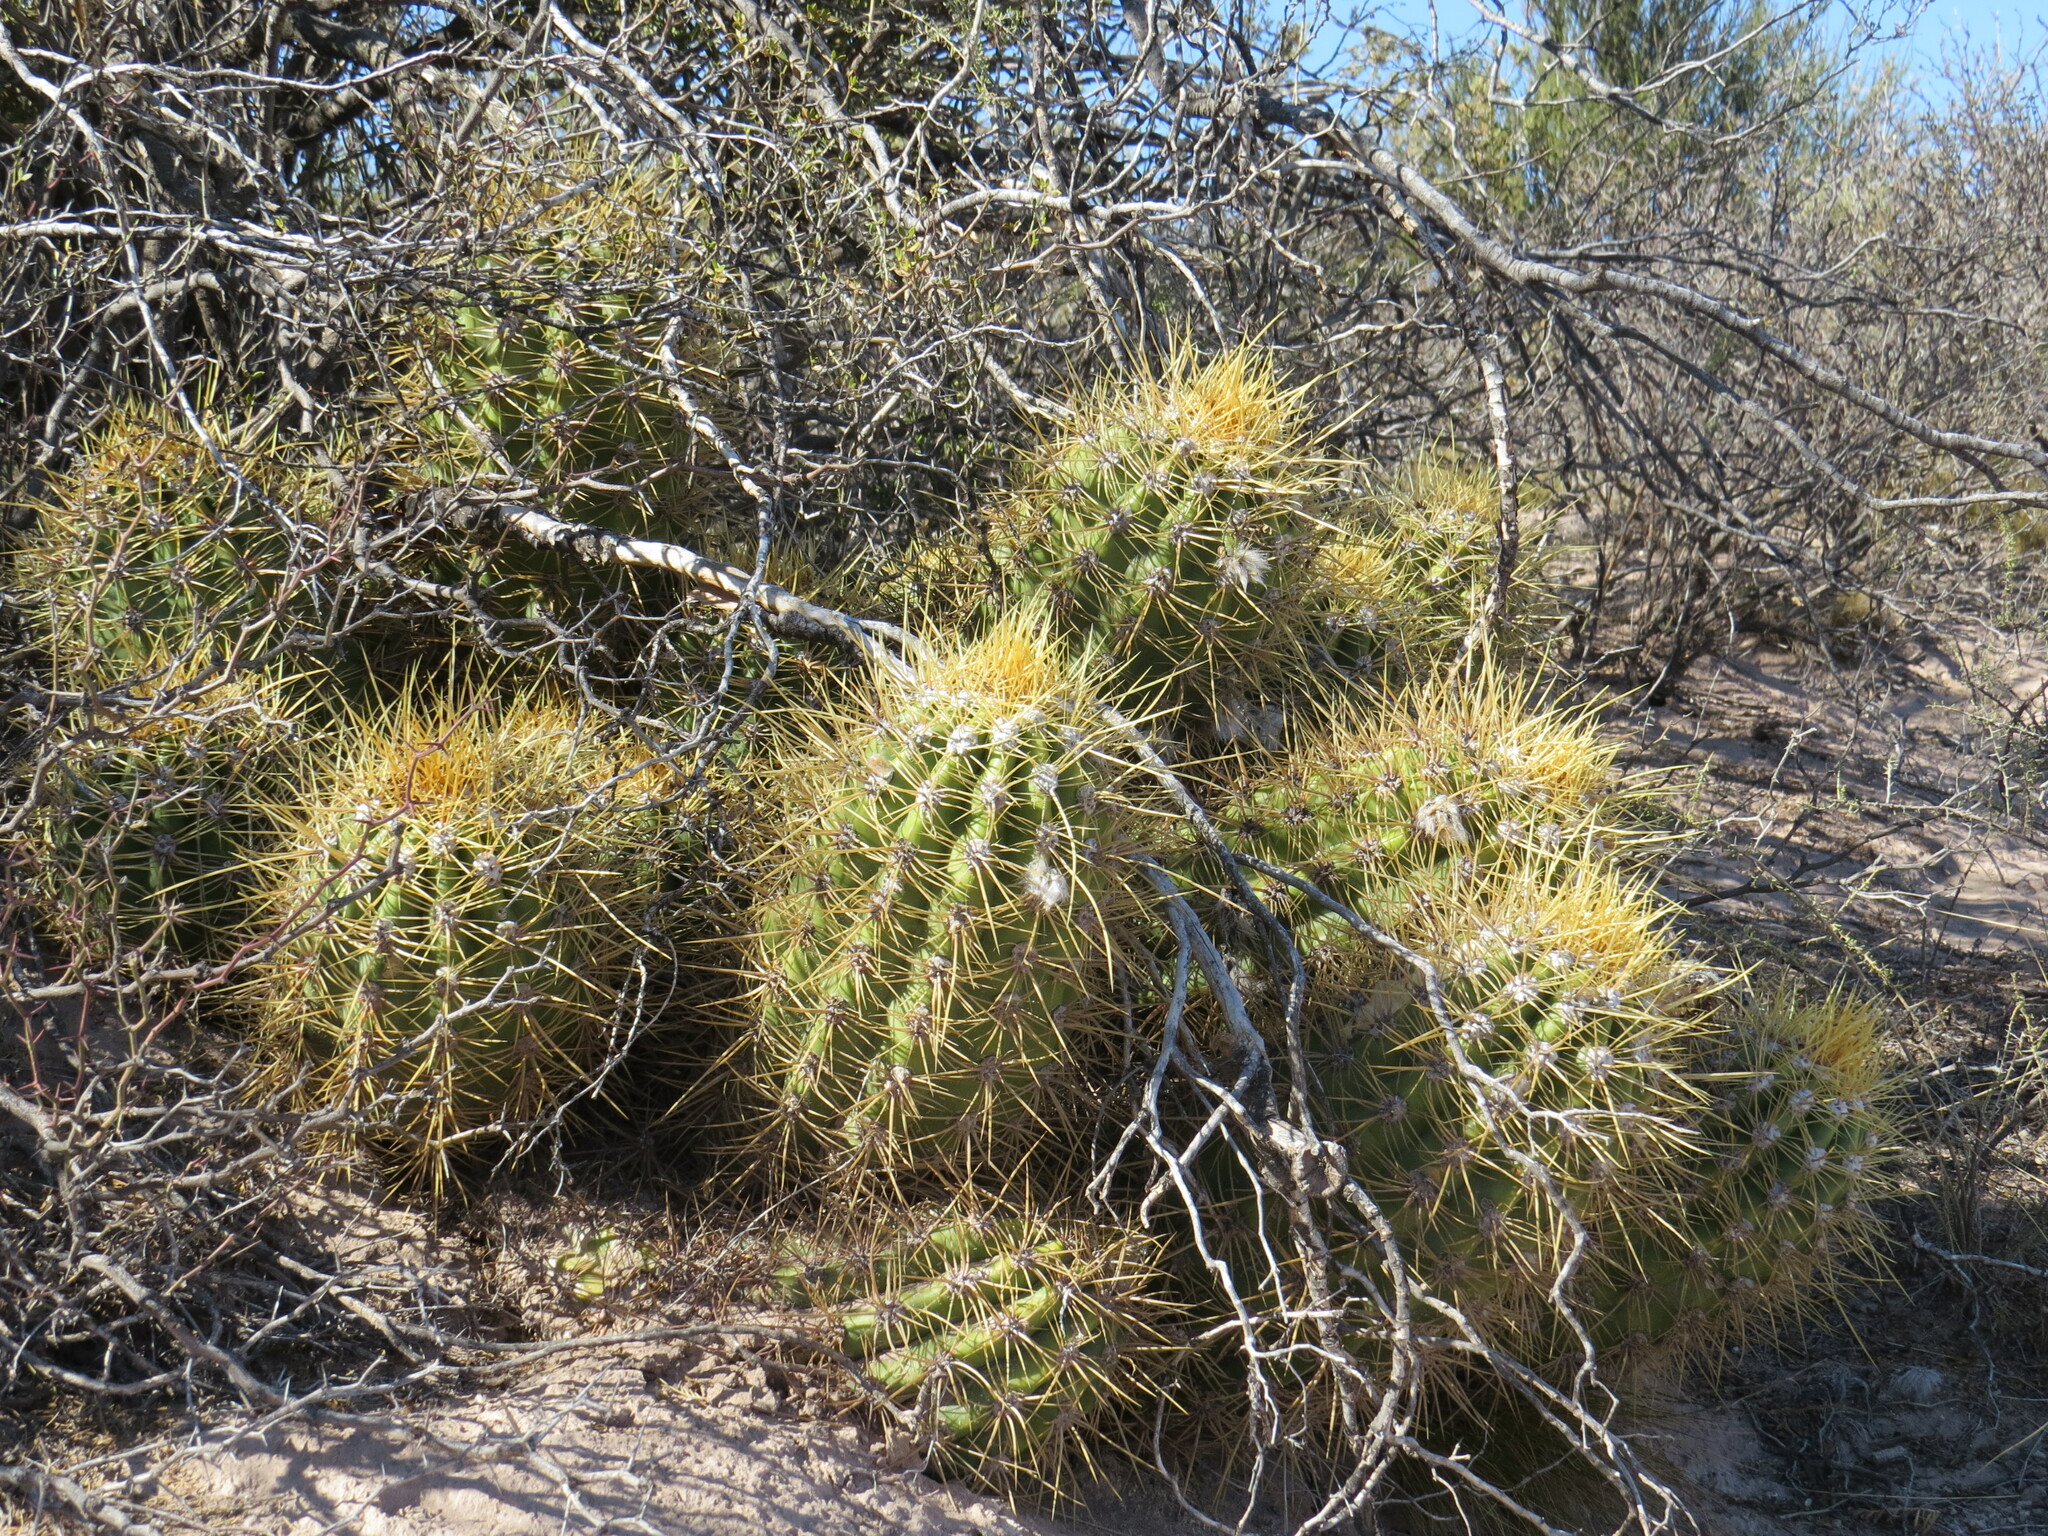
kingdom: Plantae
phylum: Tracheophyta
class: Magnoliopsida
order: Caryophyllales
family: Cactaceae
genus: Soehrensia
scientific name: Soehrensia candicans
